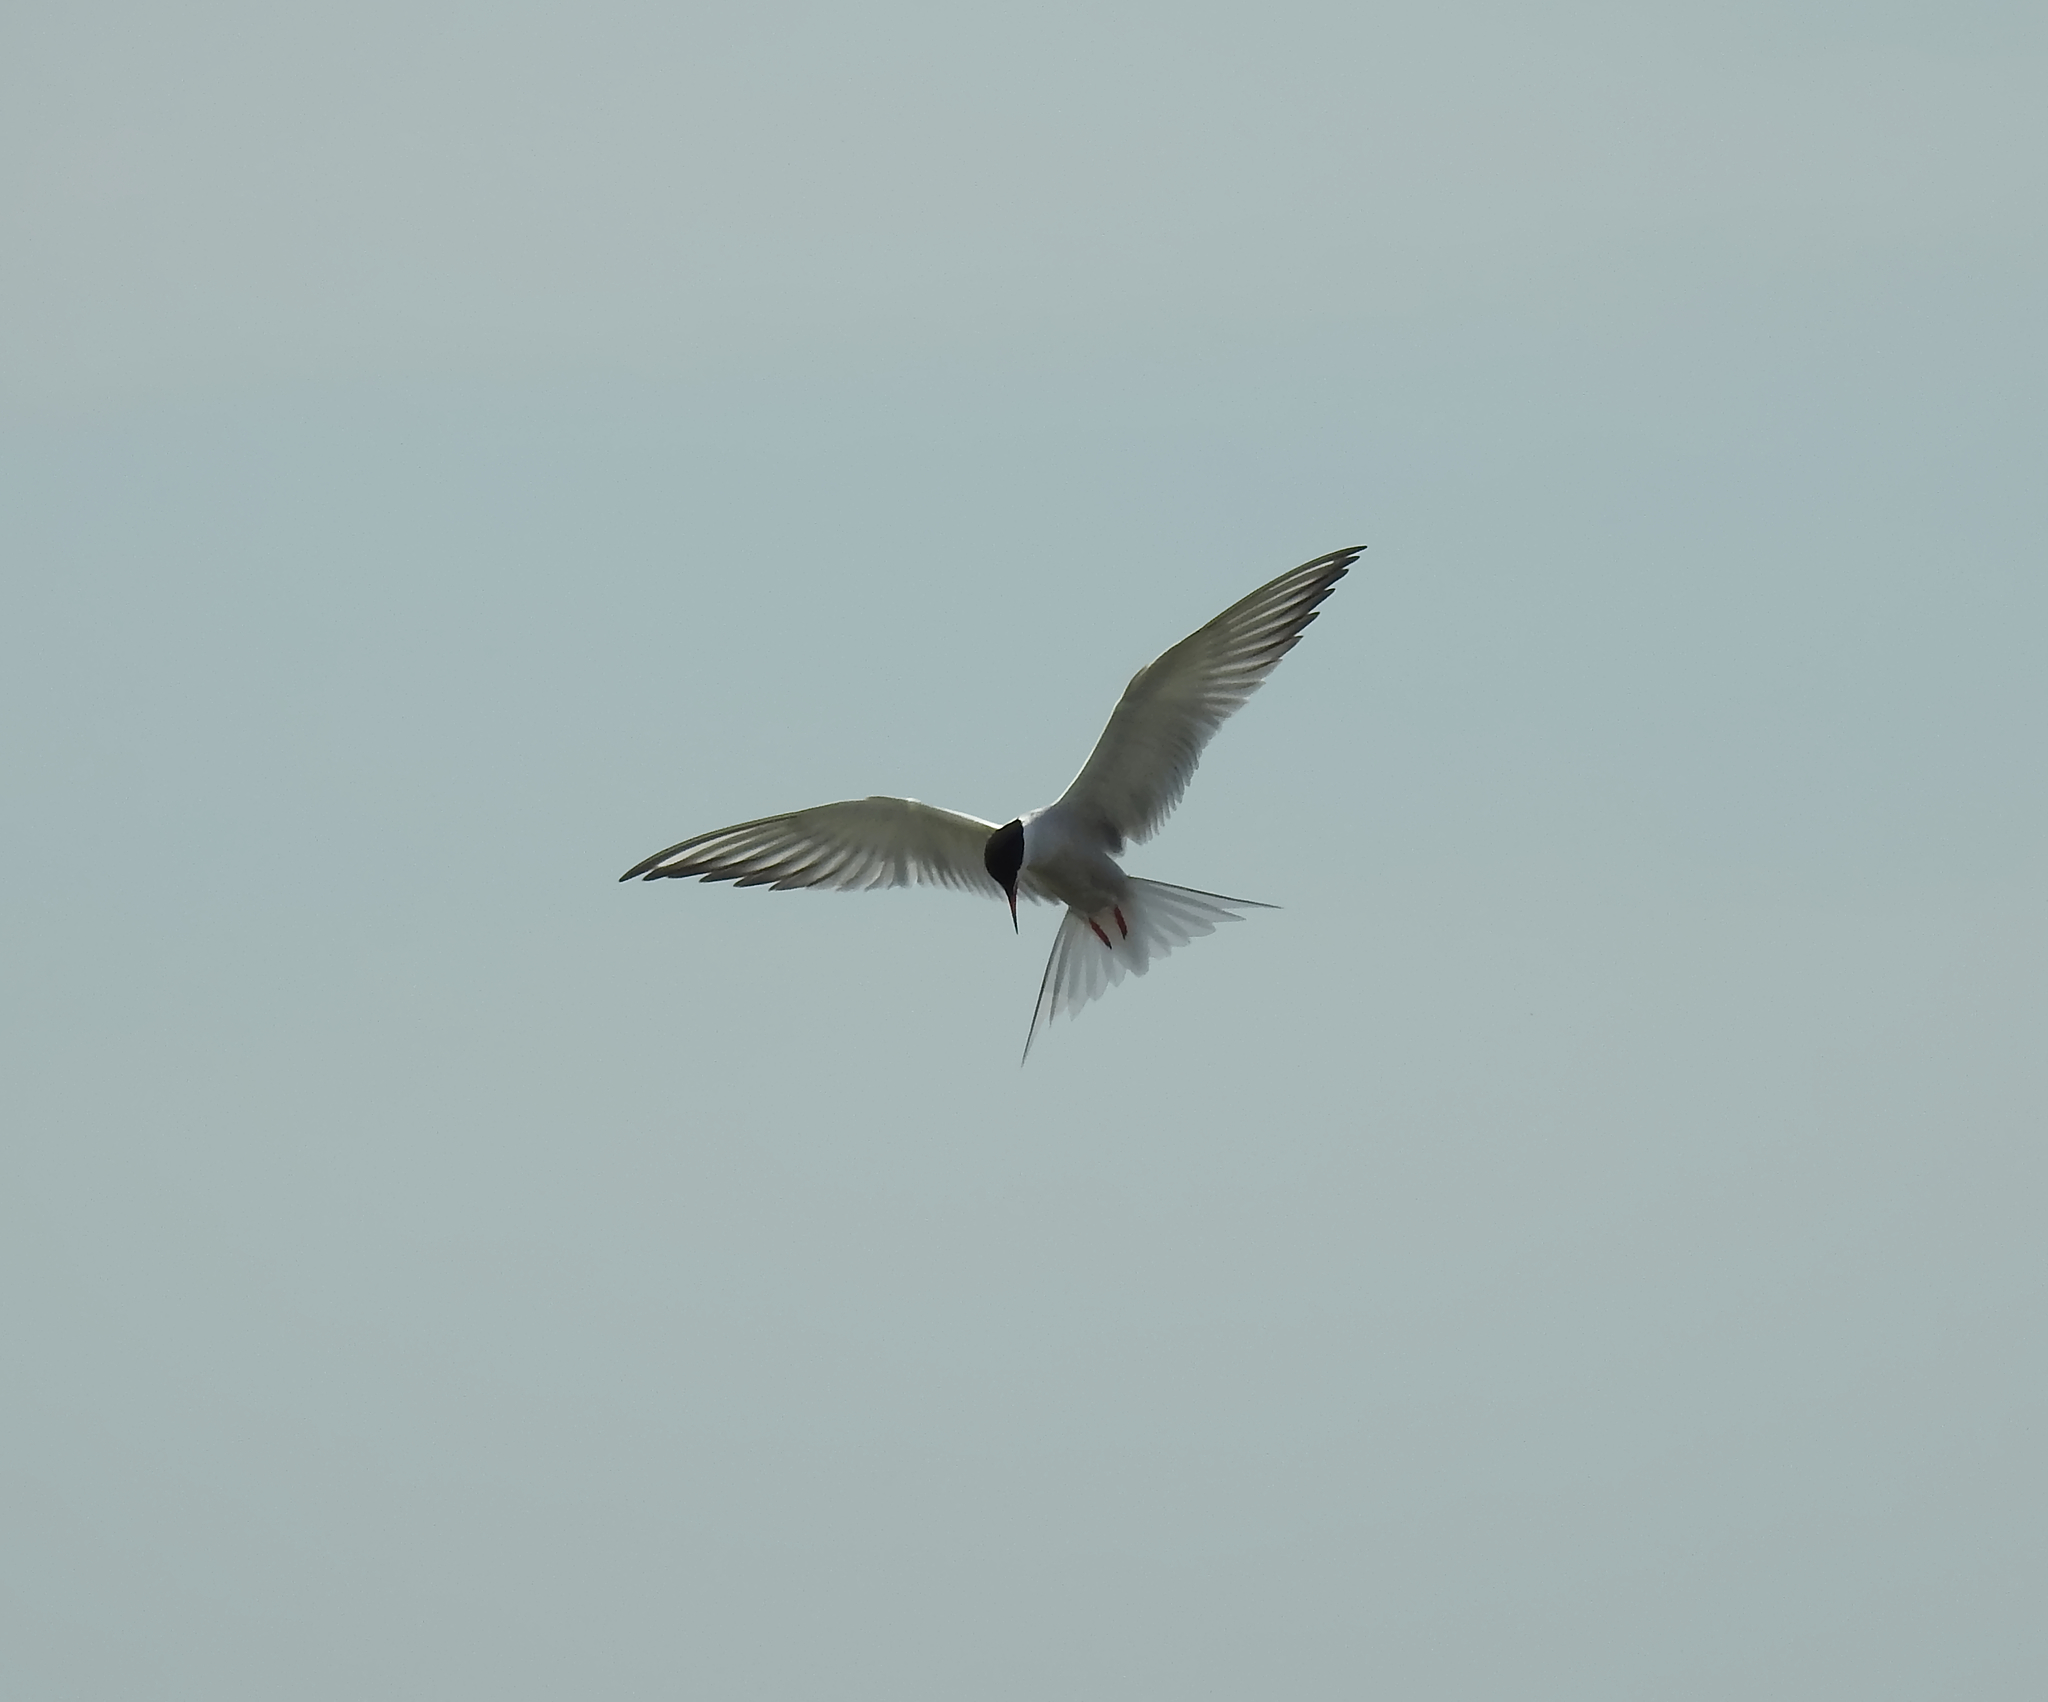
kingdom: Animalia
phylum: Chordata
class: Aves
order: Charadriiformes
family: Laridae
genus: Sterna
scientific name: Sterna hirundo
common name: Common tern
